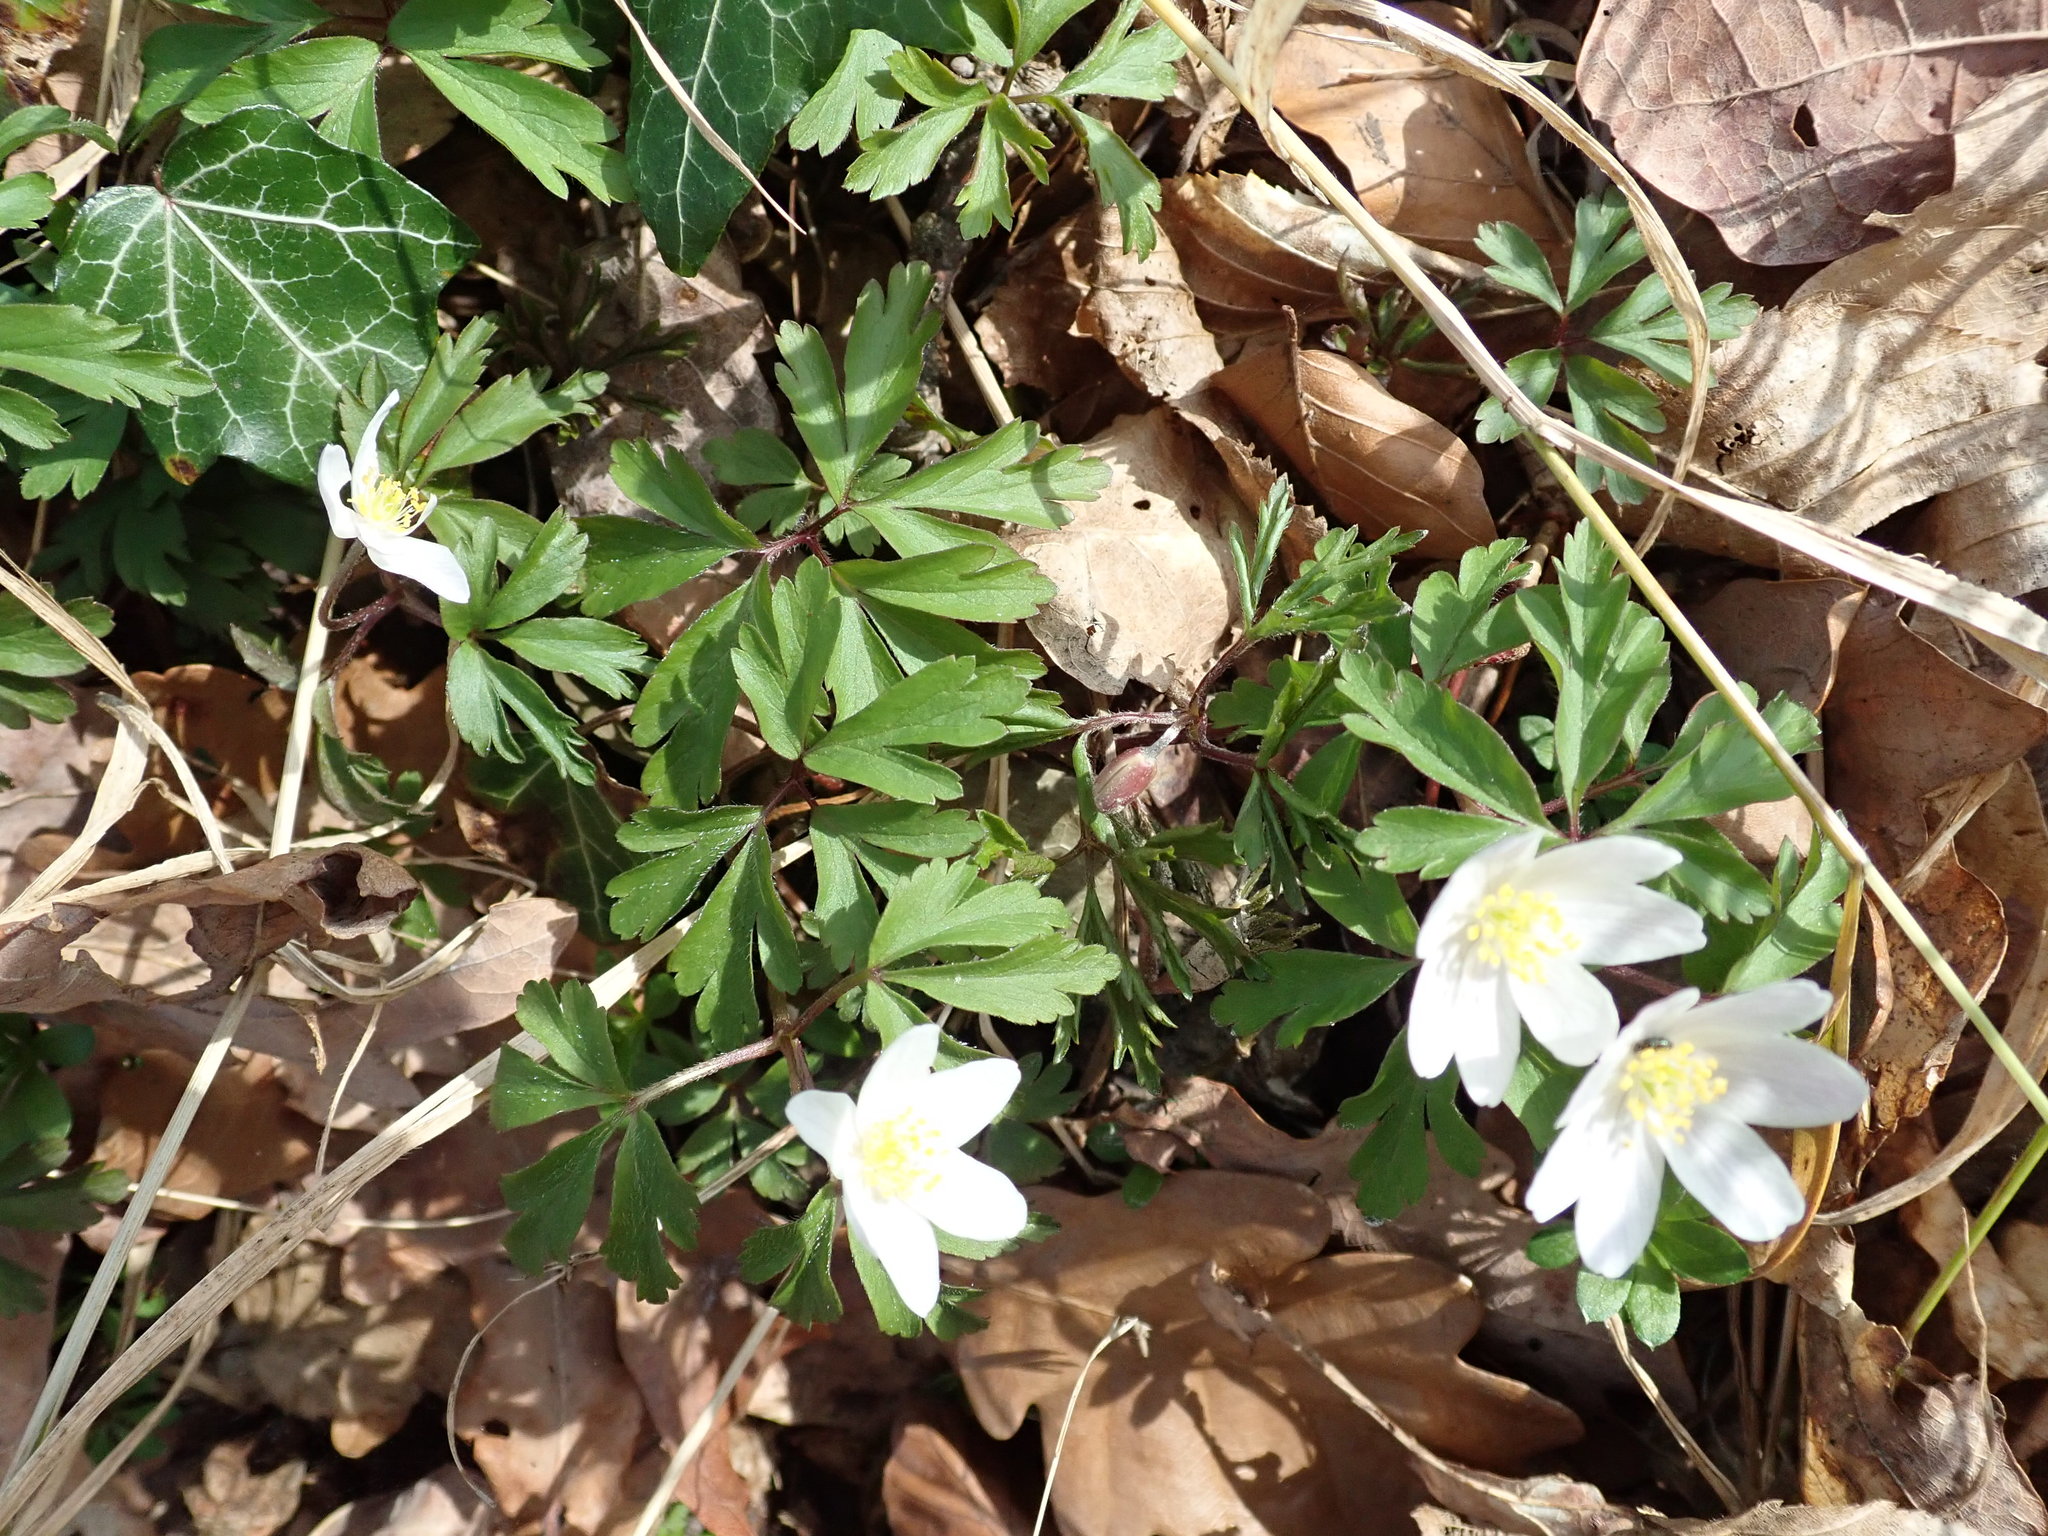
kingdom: Plantae
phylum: Tracheophyta
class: Magnoliopsida
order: Ranunculales
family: Ranunculaceae
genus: Anemone
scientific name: Anemone nemorosa
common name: Wood anemone
